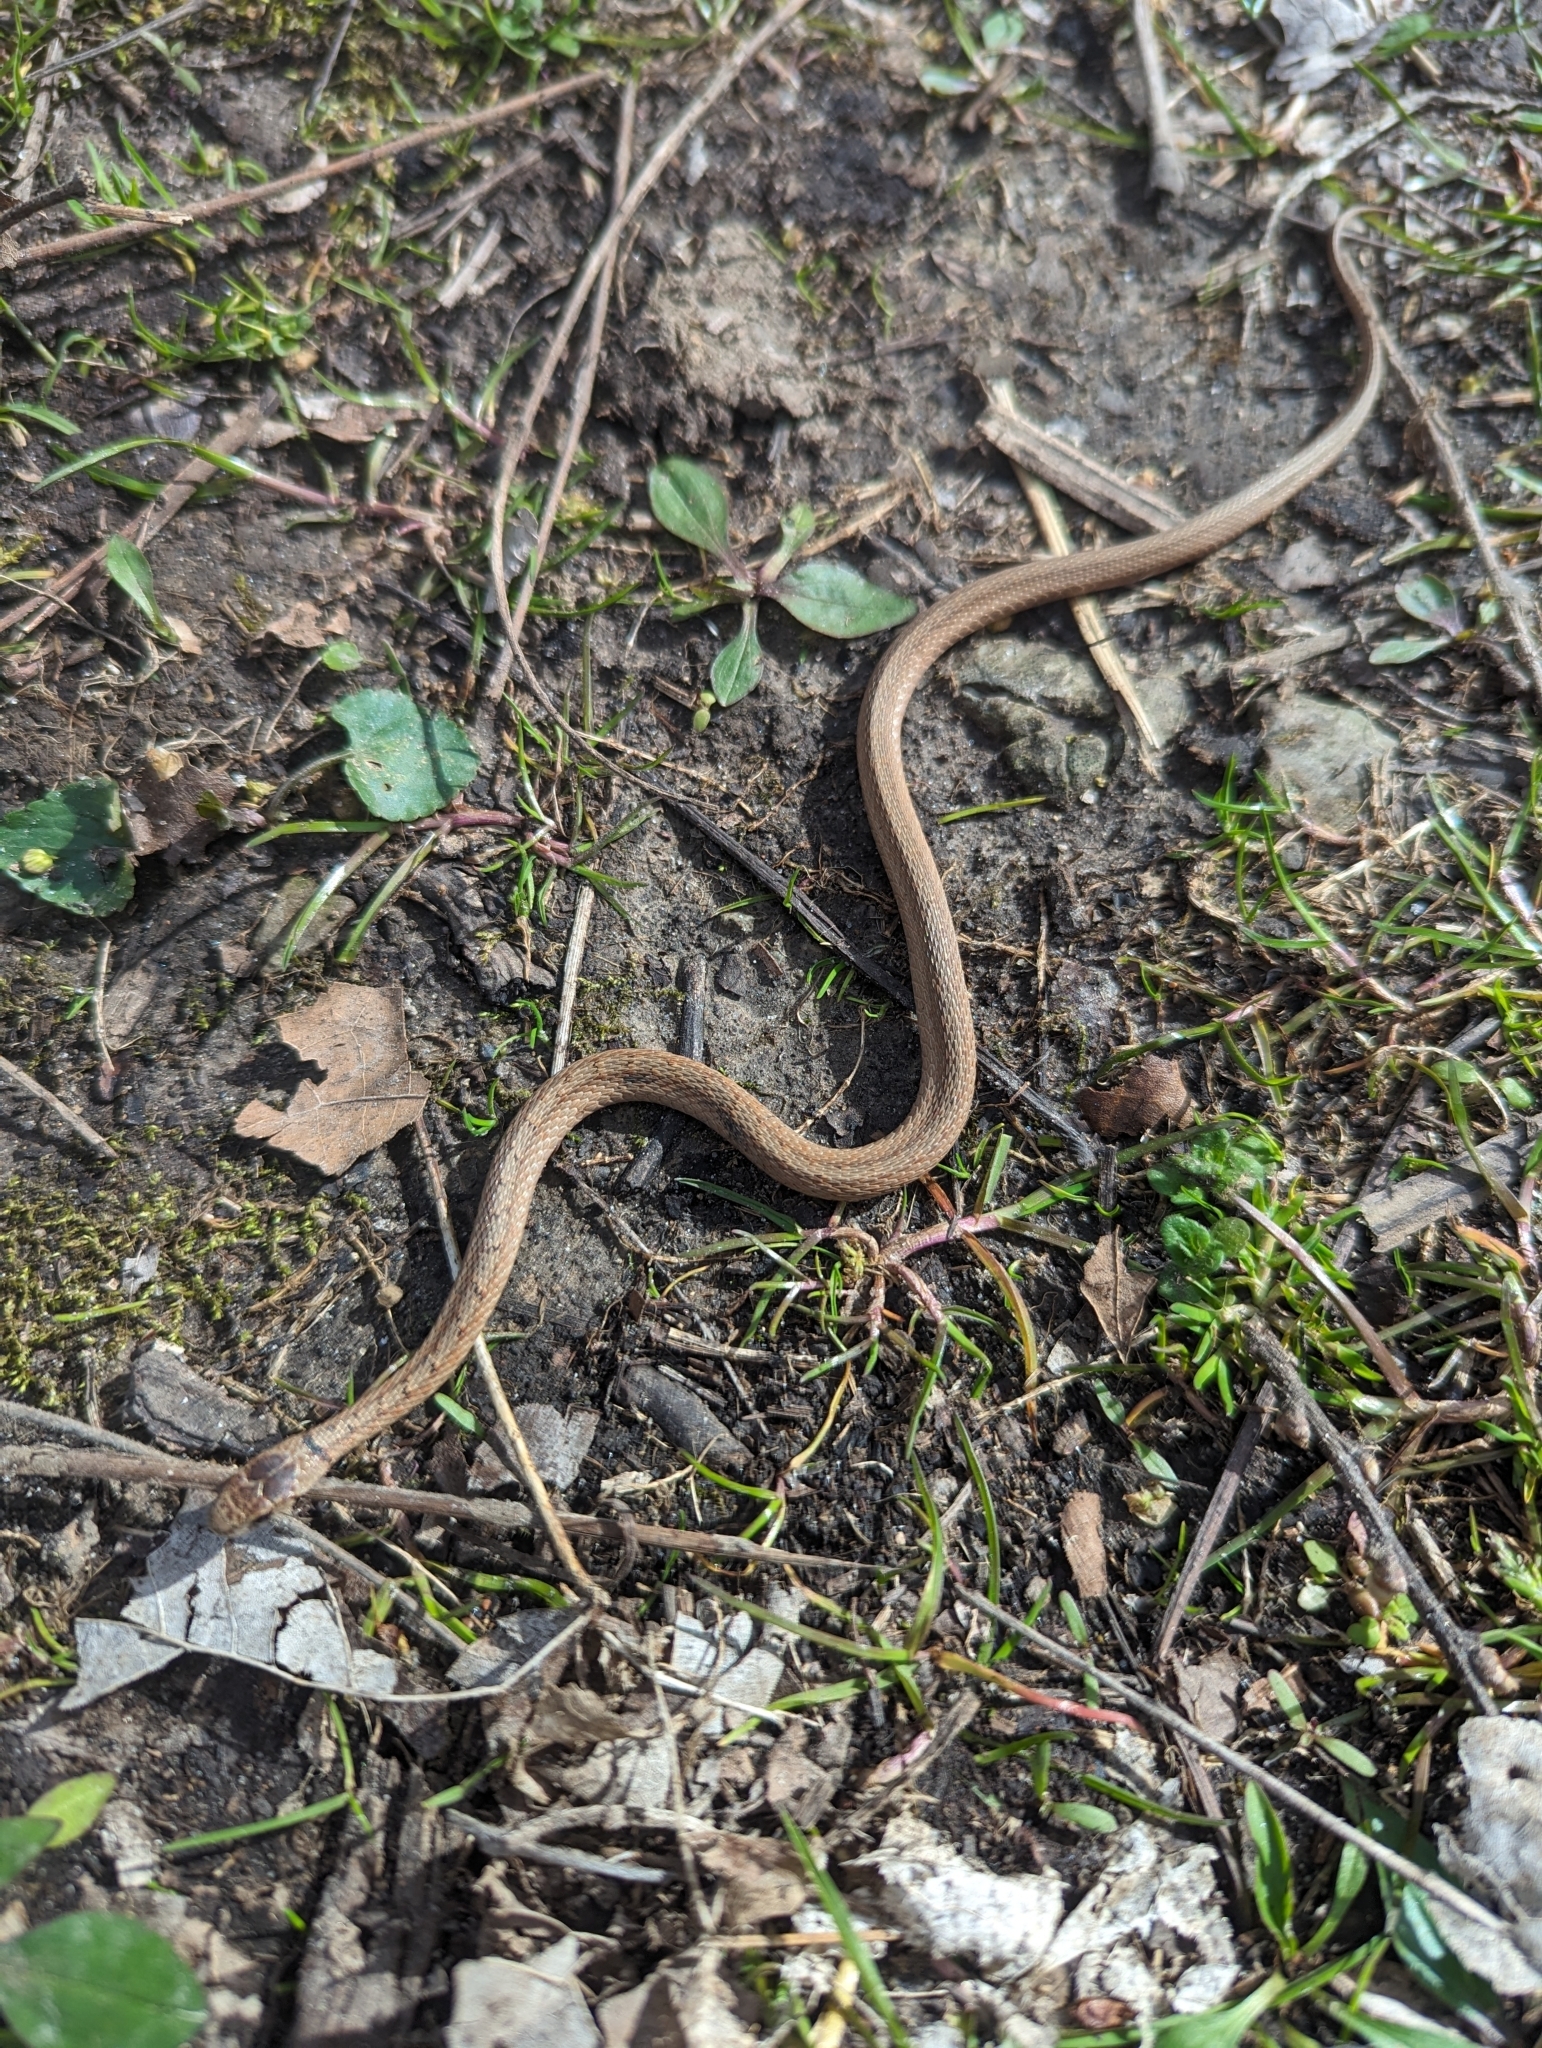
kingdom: Animalia
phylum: Chordata
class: Squamata
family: Colubridae
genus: Storeria
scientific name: Storeria dekayi
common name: (dekay’s) brown snake
